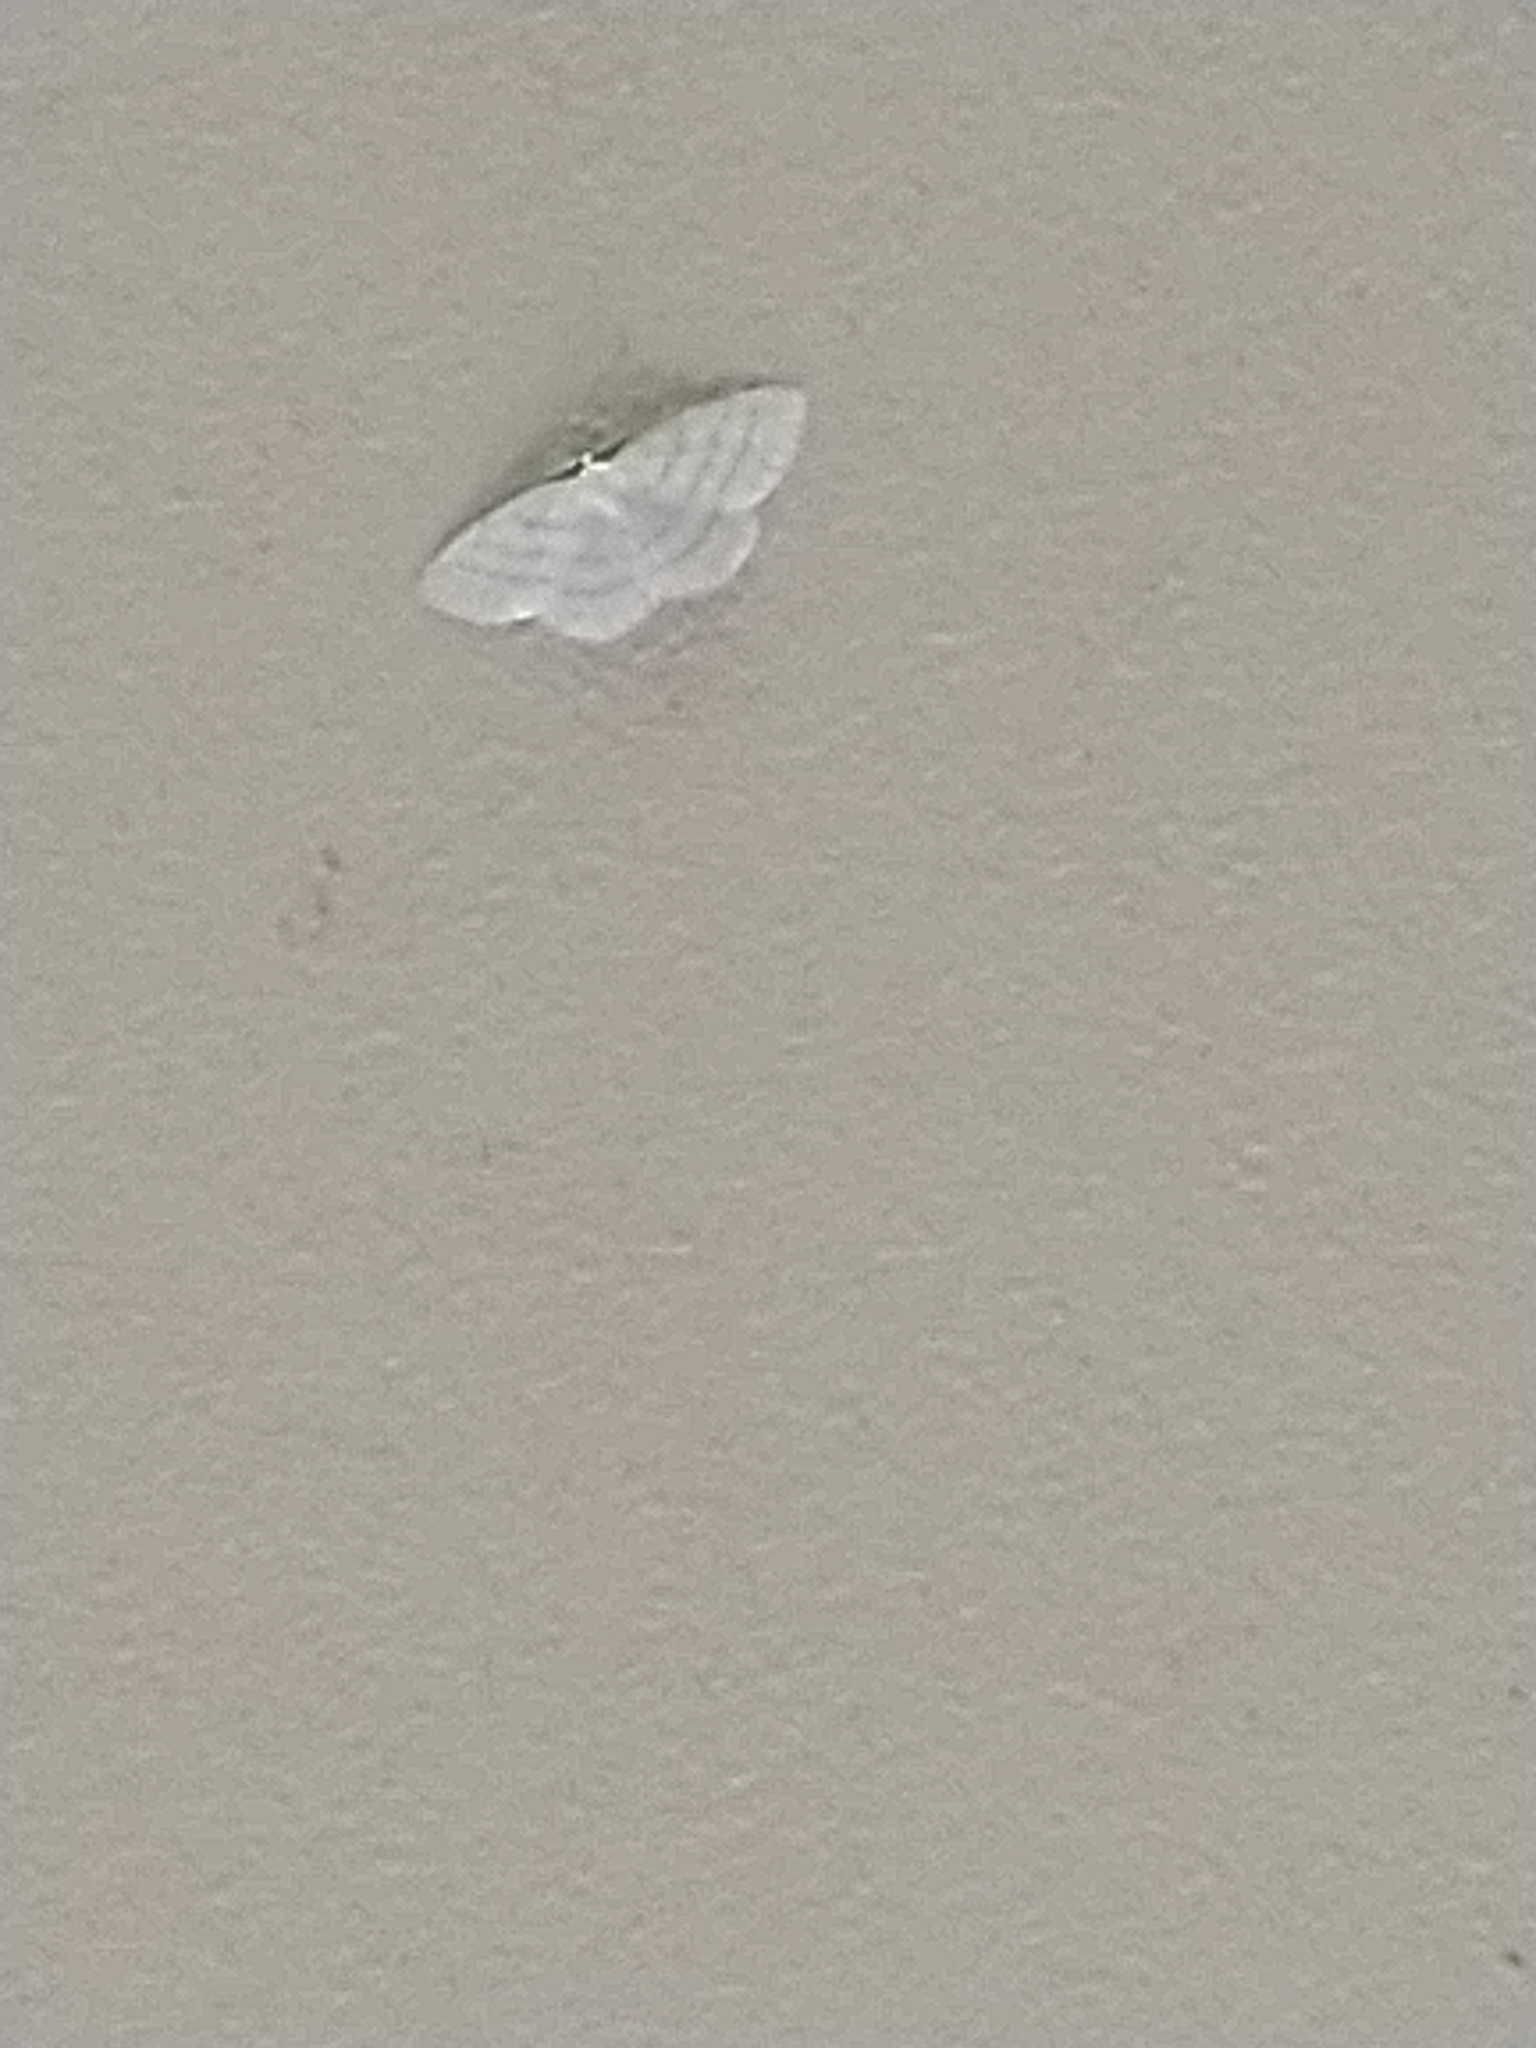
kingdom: Animalia
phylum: Arthropoda
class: Insecta
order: Lepidoptera
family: Geometridae
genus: Cabera
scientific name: Cabera pusaria
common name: Common white wave
